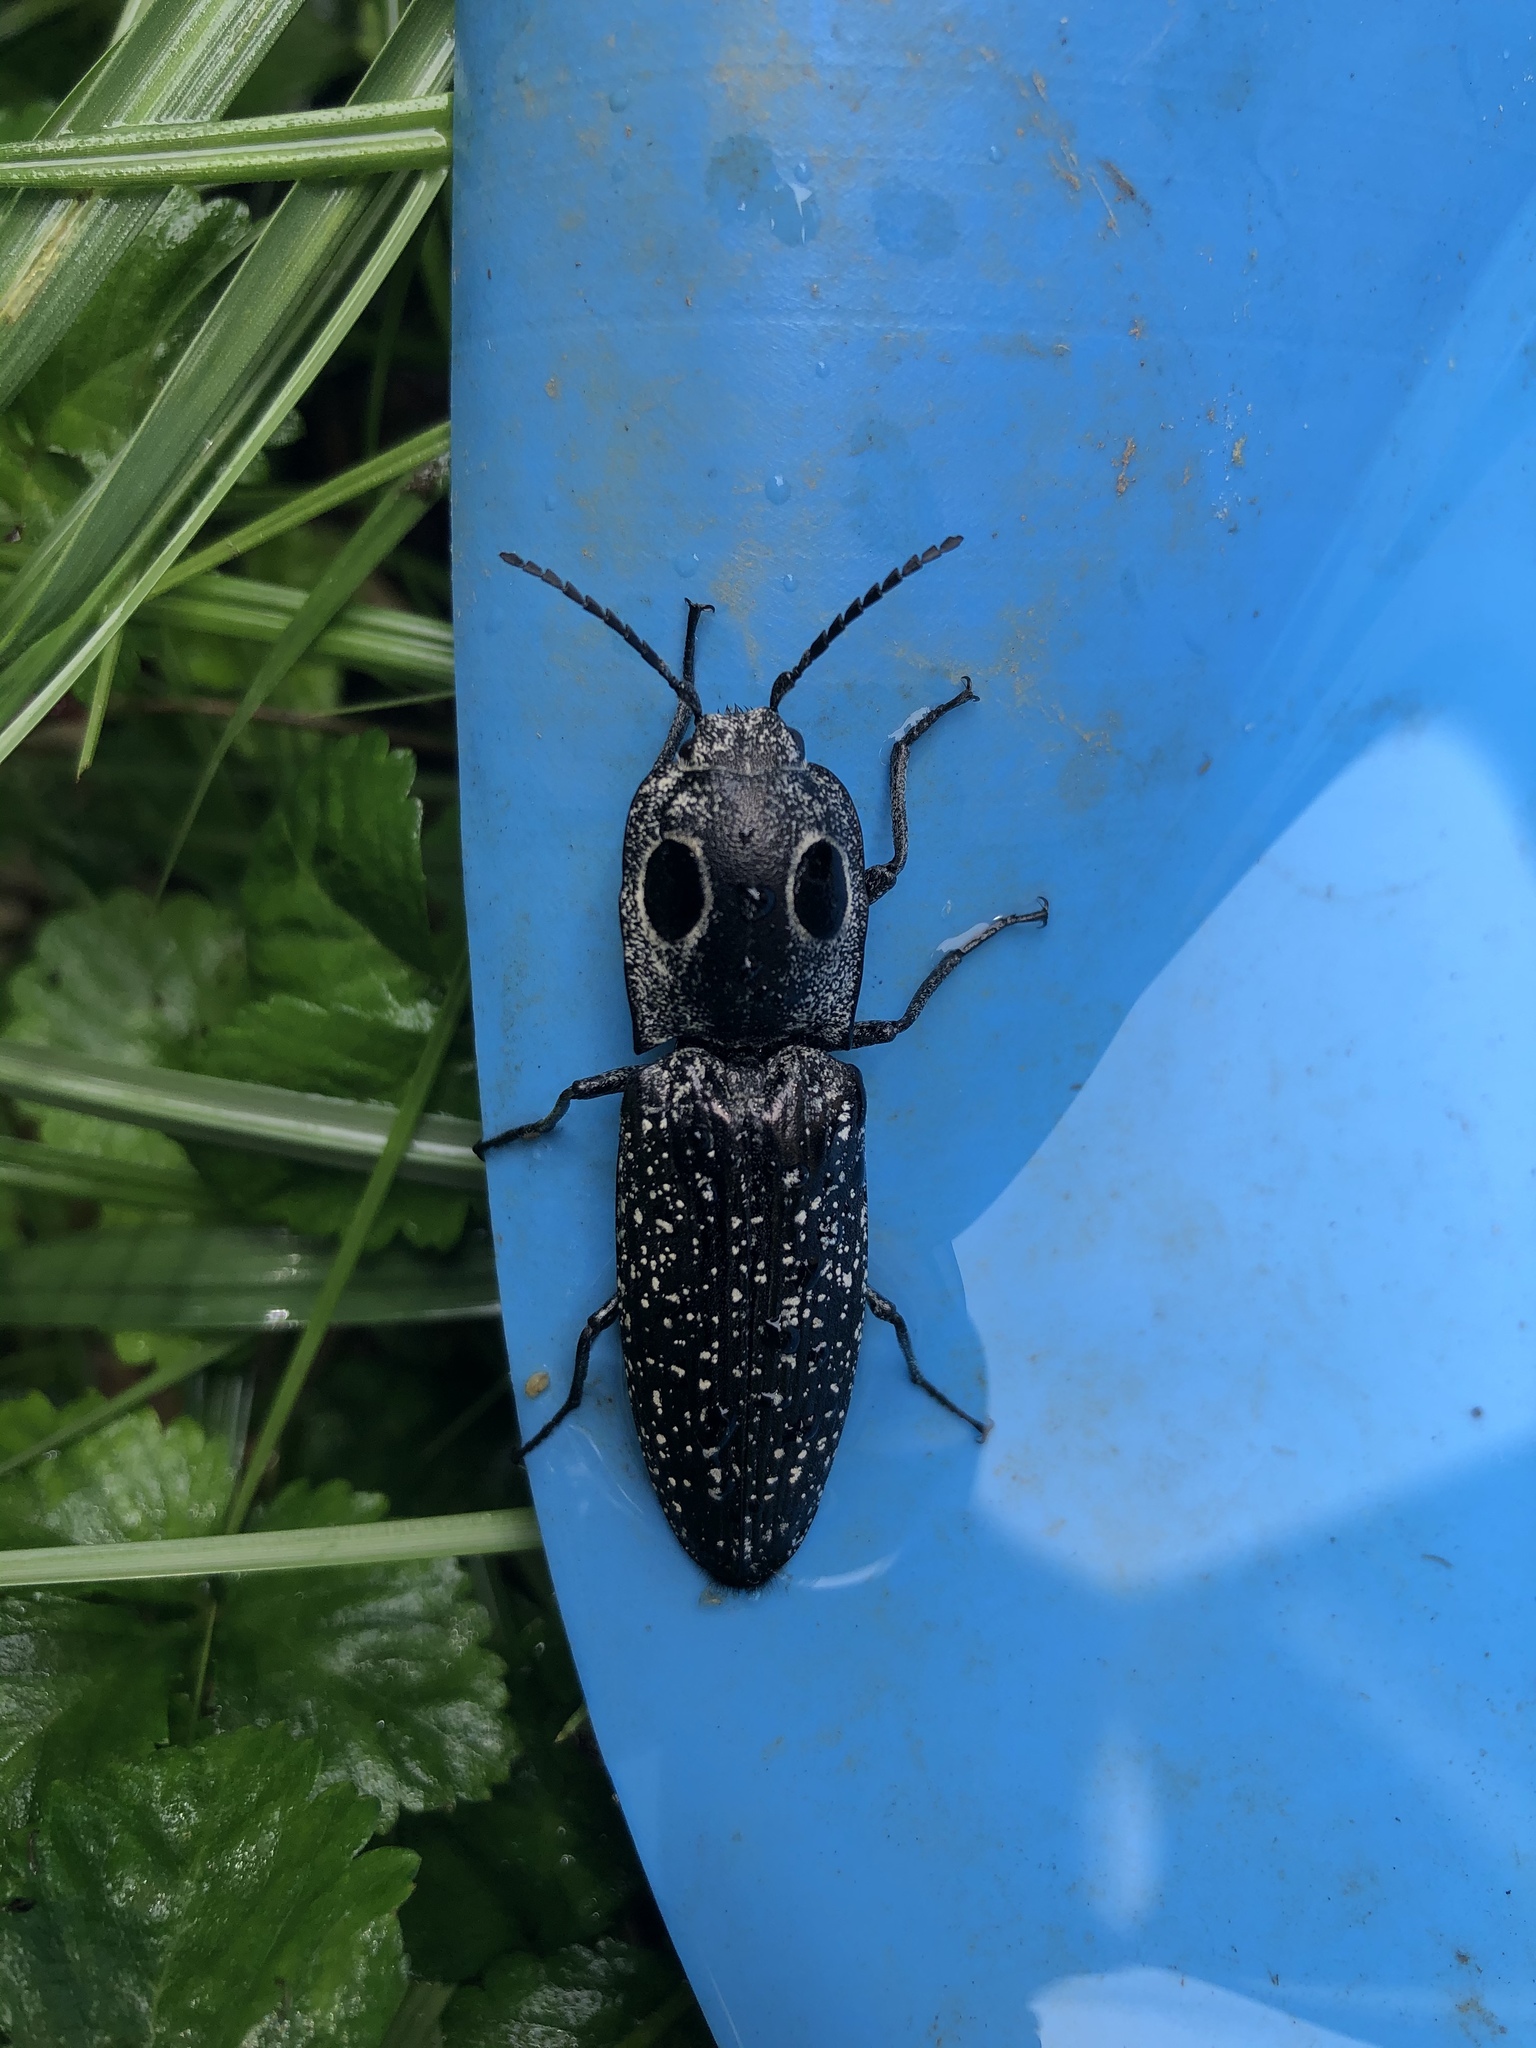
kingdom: Animalia
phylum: Arthropoda
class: Insecta
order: Coleoptera
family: Elateridae
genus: Alaus
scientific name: Alaus oculatus
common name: Eastern eyed click beetle
